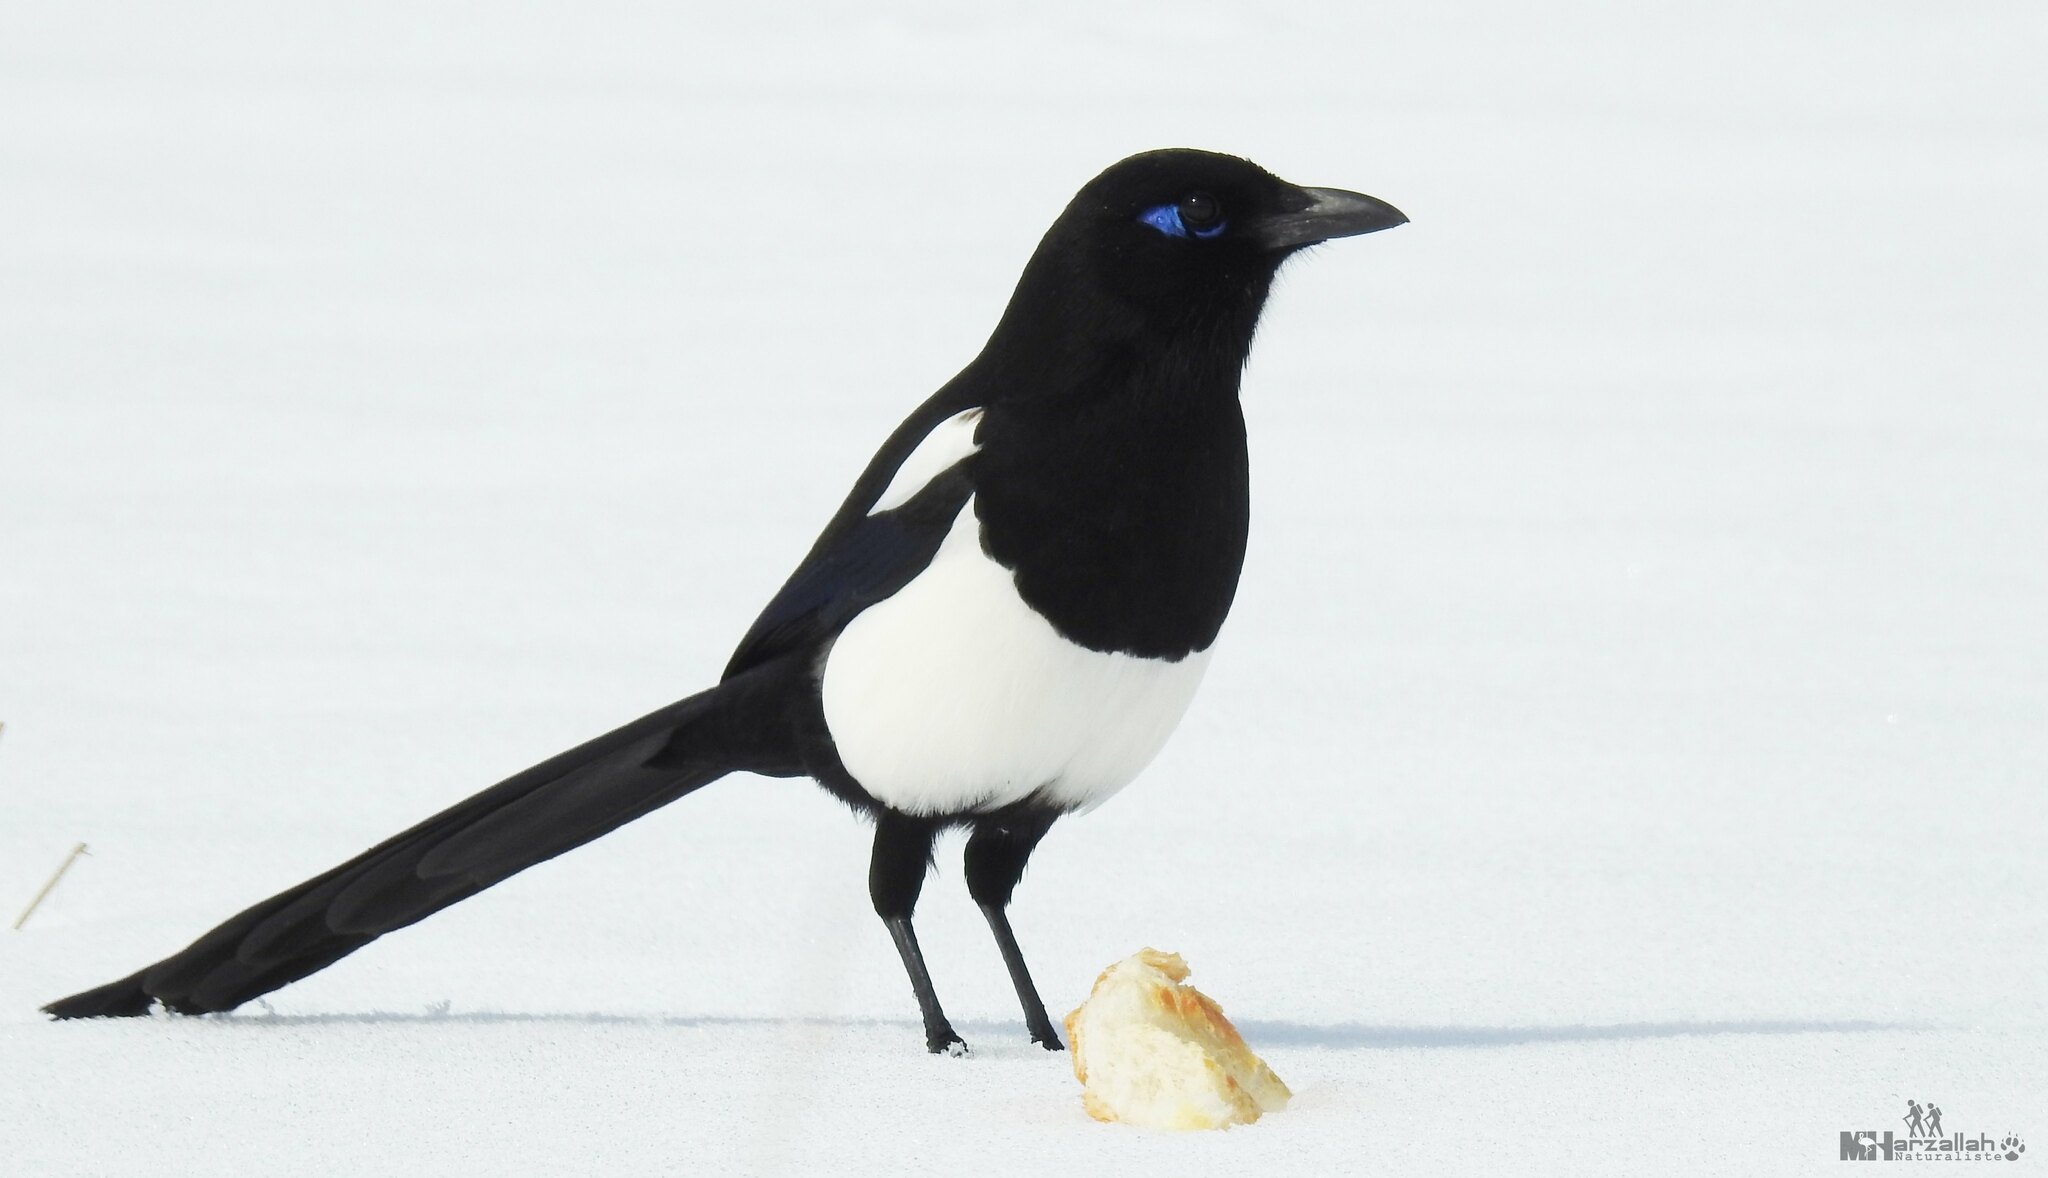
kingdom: Animalia
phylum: Chordata
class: Aves
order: Passeriformes
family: Corvidae
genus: Pica
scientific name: Pica mauritanica
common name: Maghreb magpie
